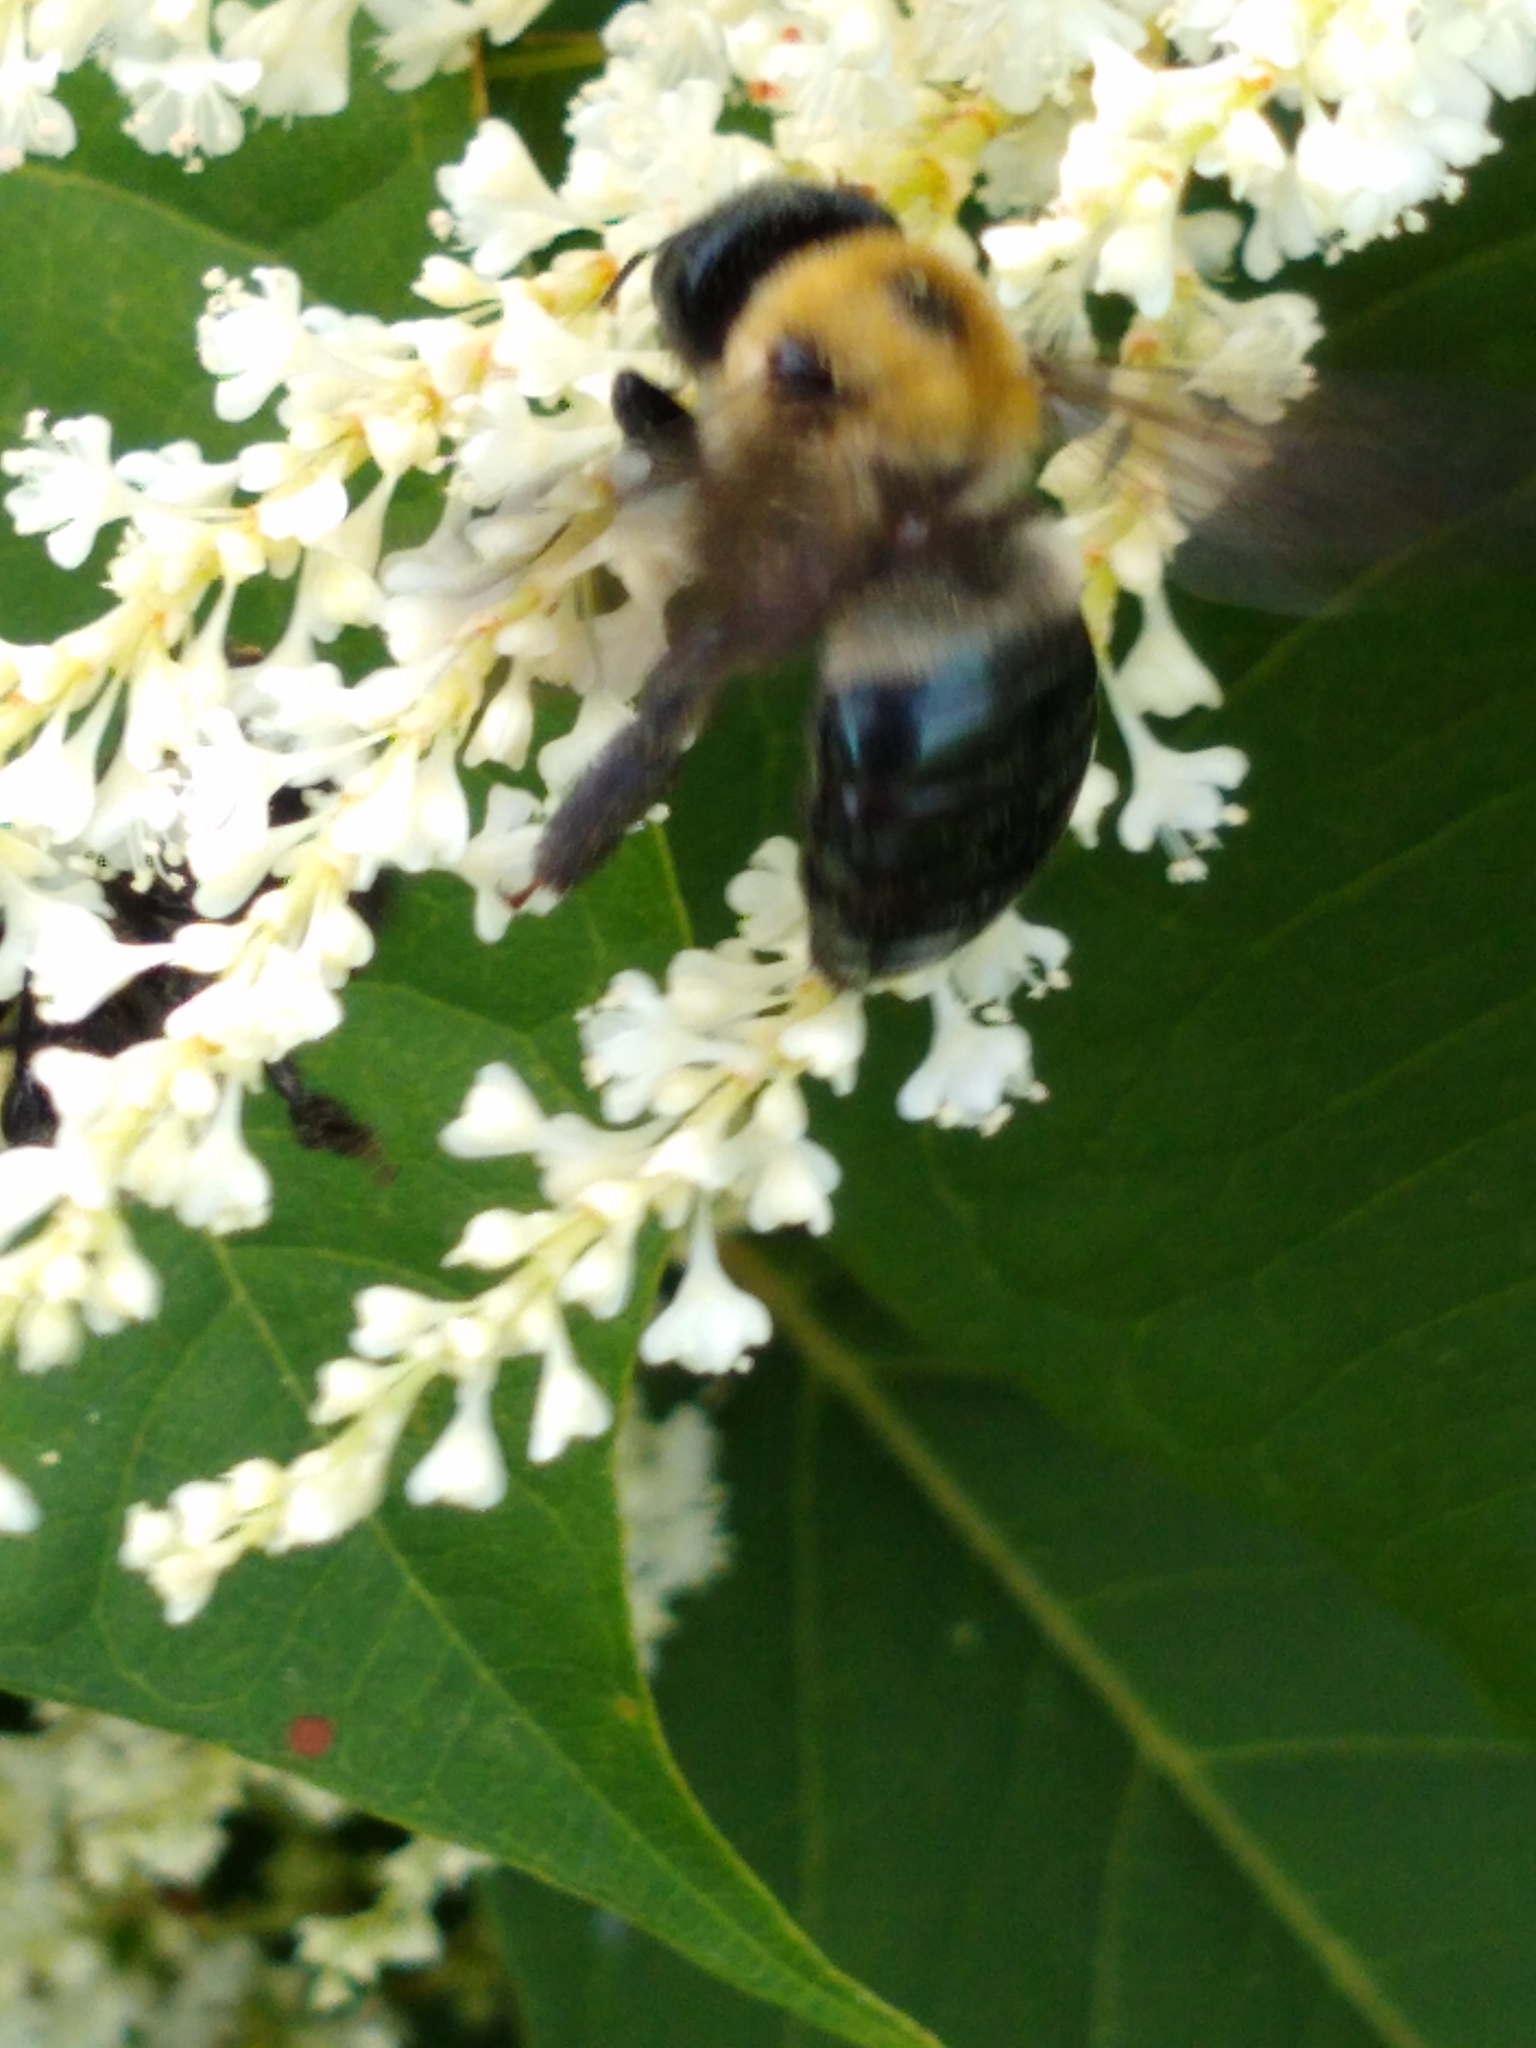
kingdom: Animalia
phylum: Arthropoda
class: Insecta
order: Hymenoptera
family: Apidae
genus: Xylocopa
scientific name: Xylocopa virginica
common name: Carpenter bee
